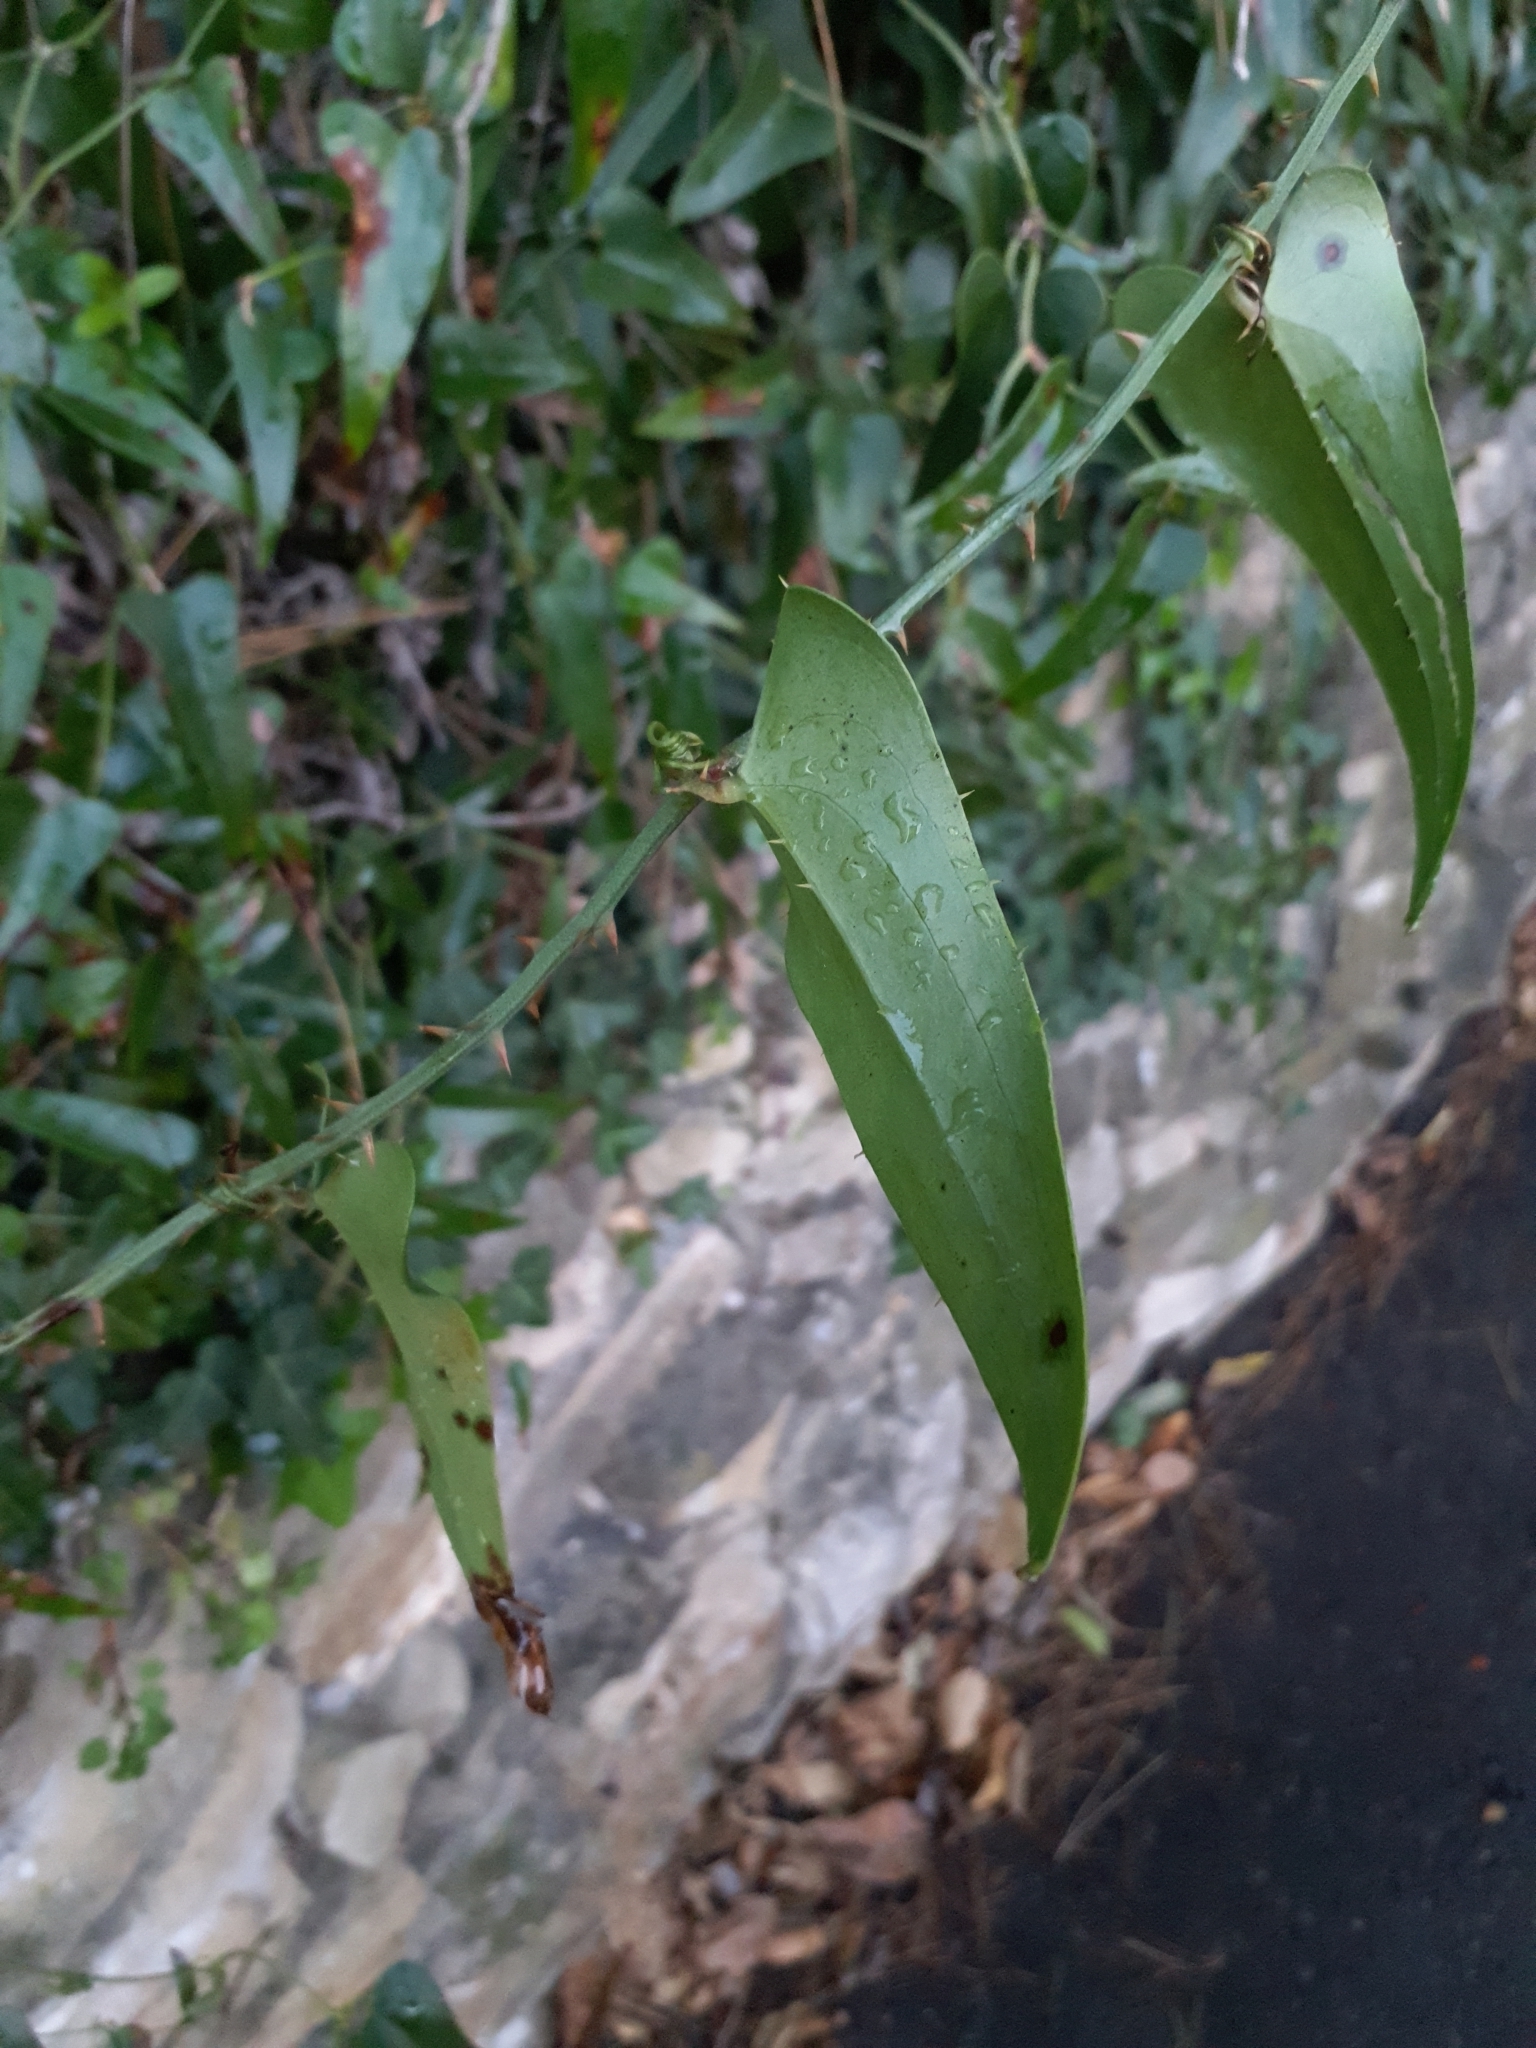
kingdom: Plantae
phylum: Tracheophyta
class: Liliopsida
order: Liliales
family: Smilacaceae
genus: Smilax
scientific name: Smilax aspera
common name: Common smilax
